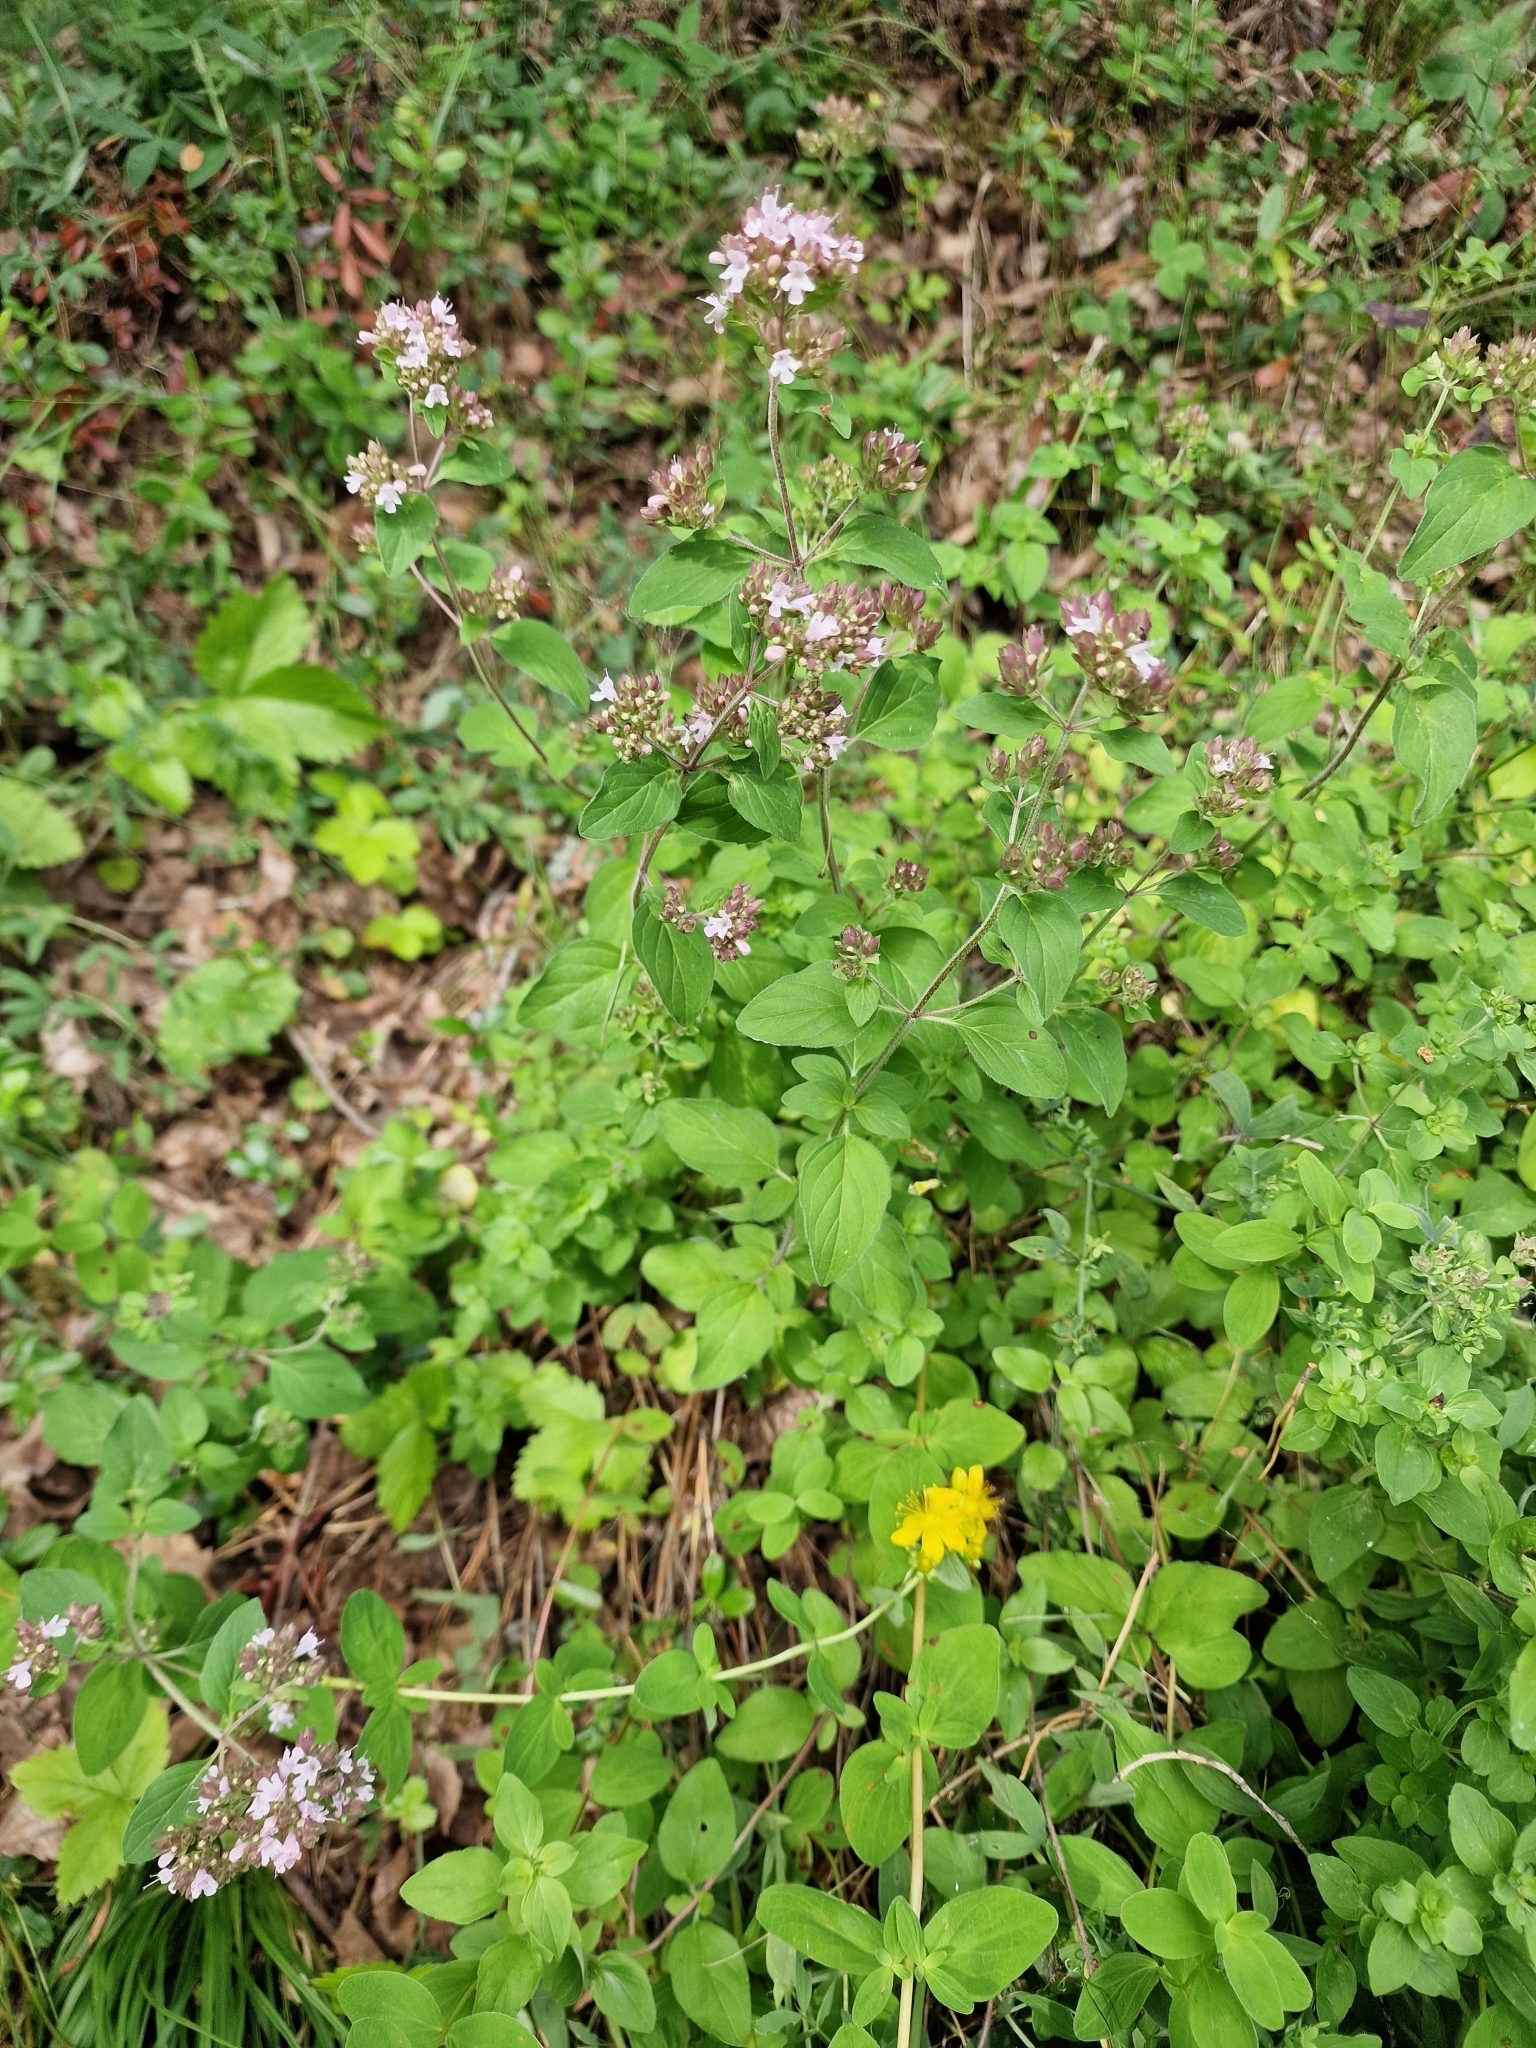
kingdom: Plantae
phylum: Tracheophyta
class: Magnoliopsida
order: Lamiales
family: Lamiaceae
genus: Origanum
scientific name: Origanum vulgare
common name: Wild marjoram
